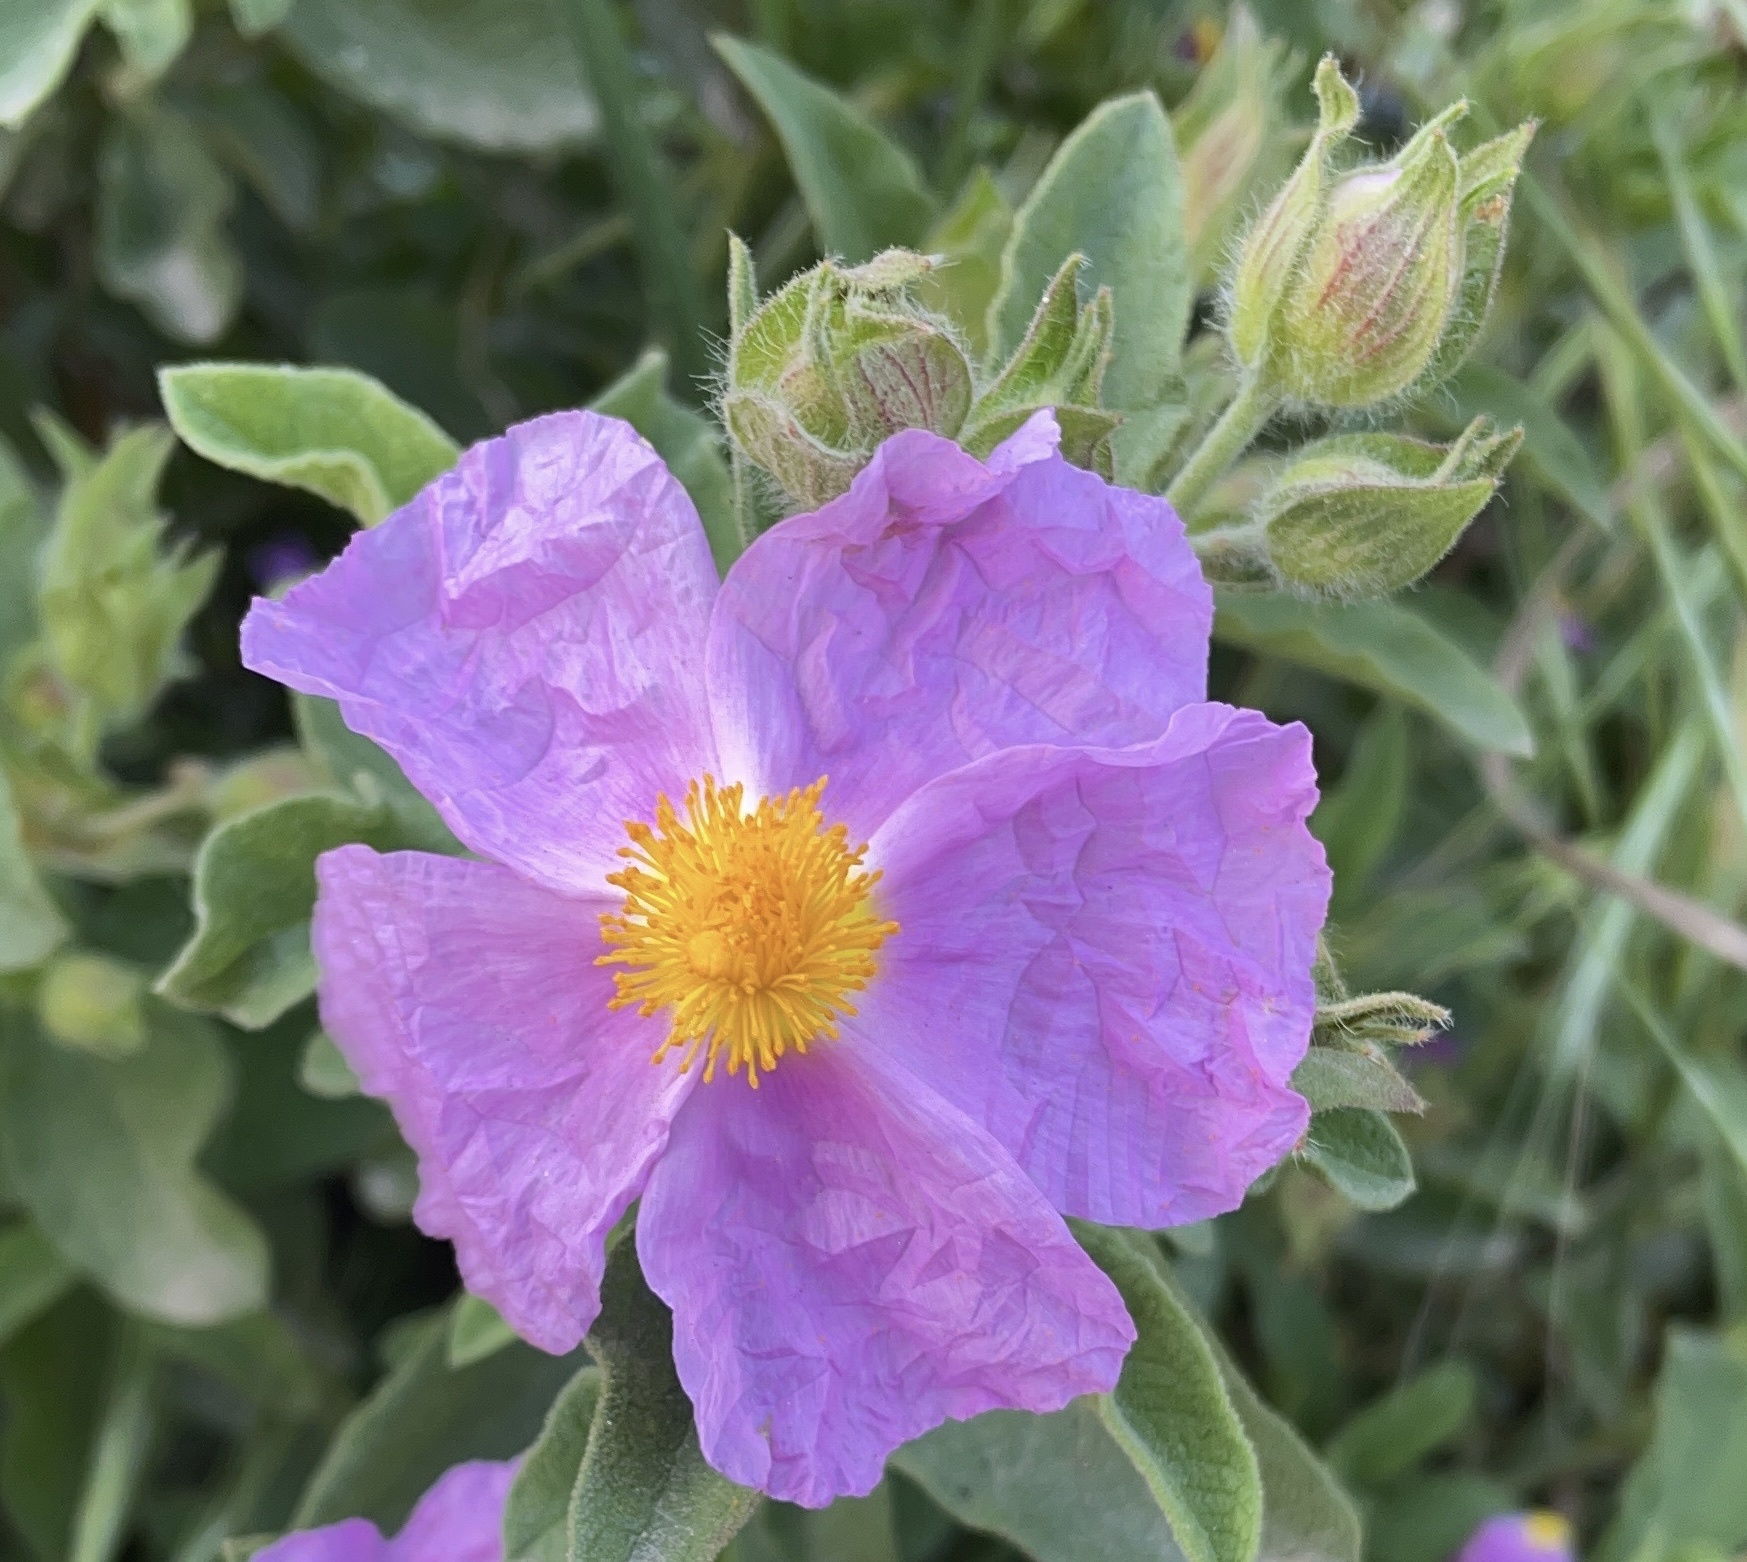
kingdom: Plantae
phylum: Tracheophyta
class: Magnoliopsida
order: Malvales
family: Cistaceae
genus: Cistus
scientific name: Cistus creticus
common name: Cretan rockrose
